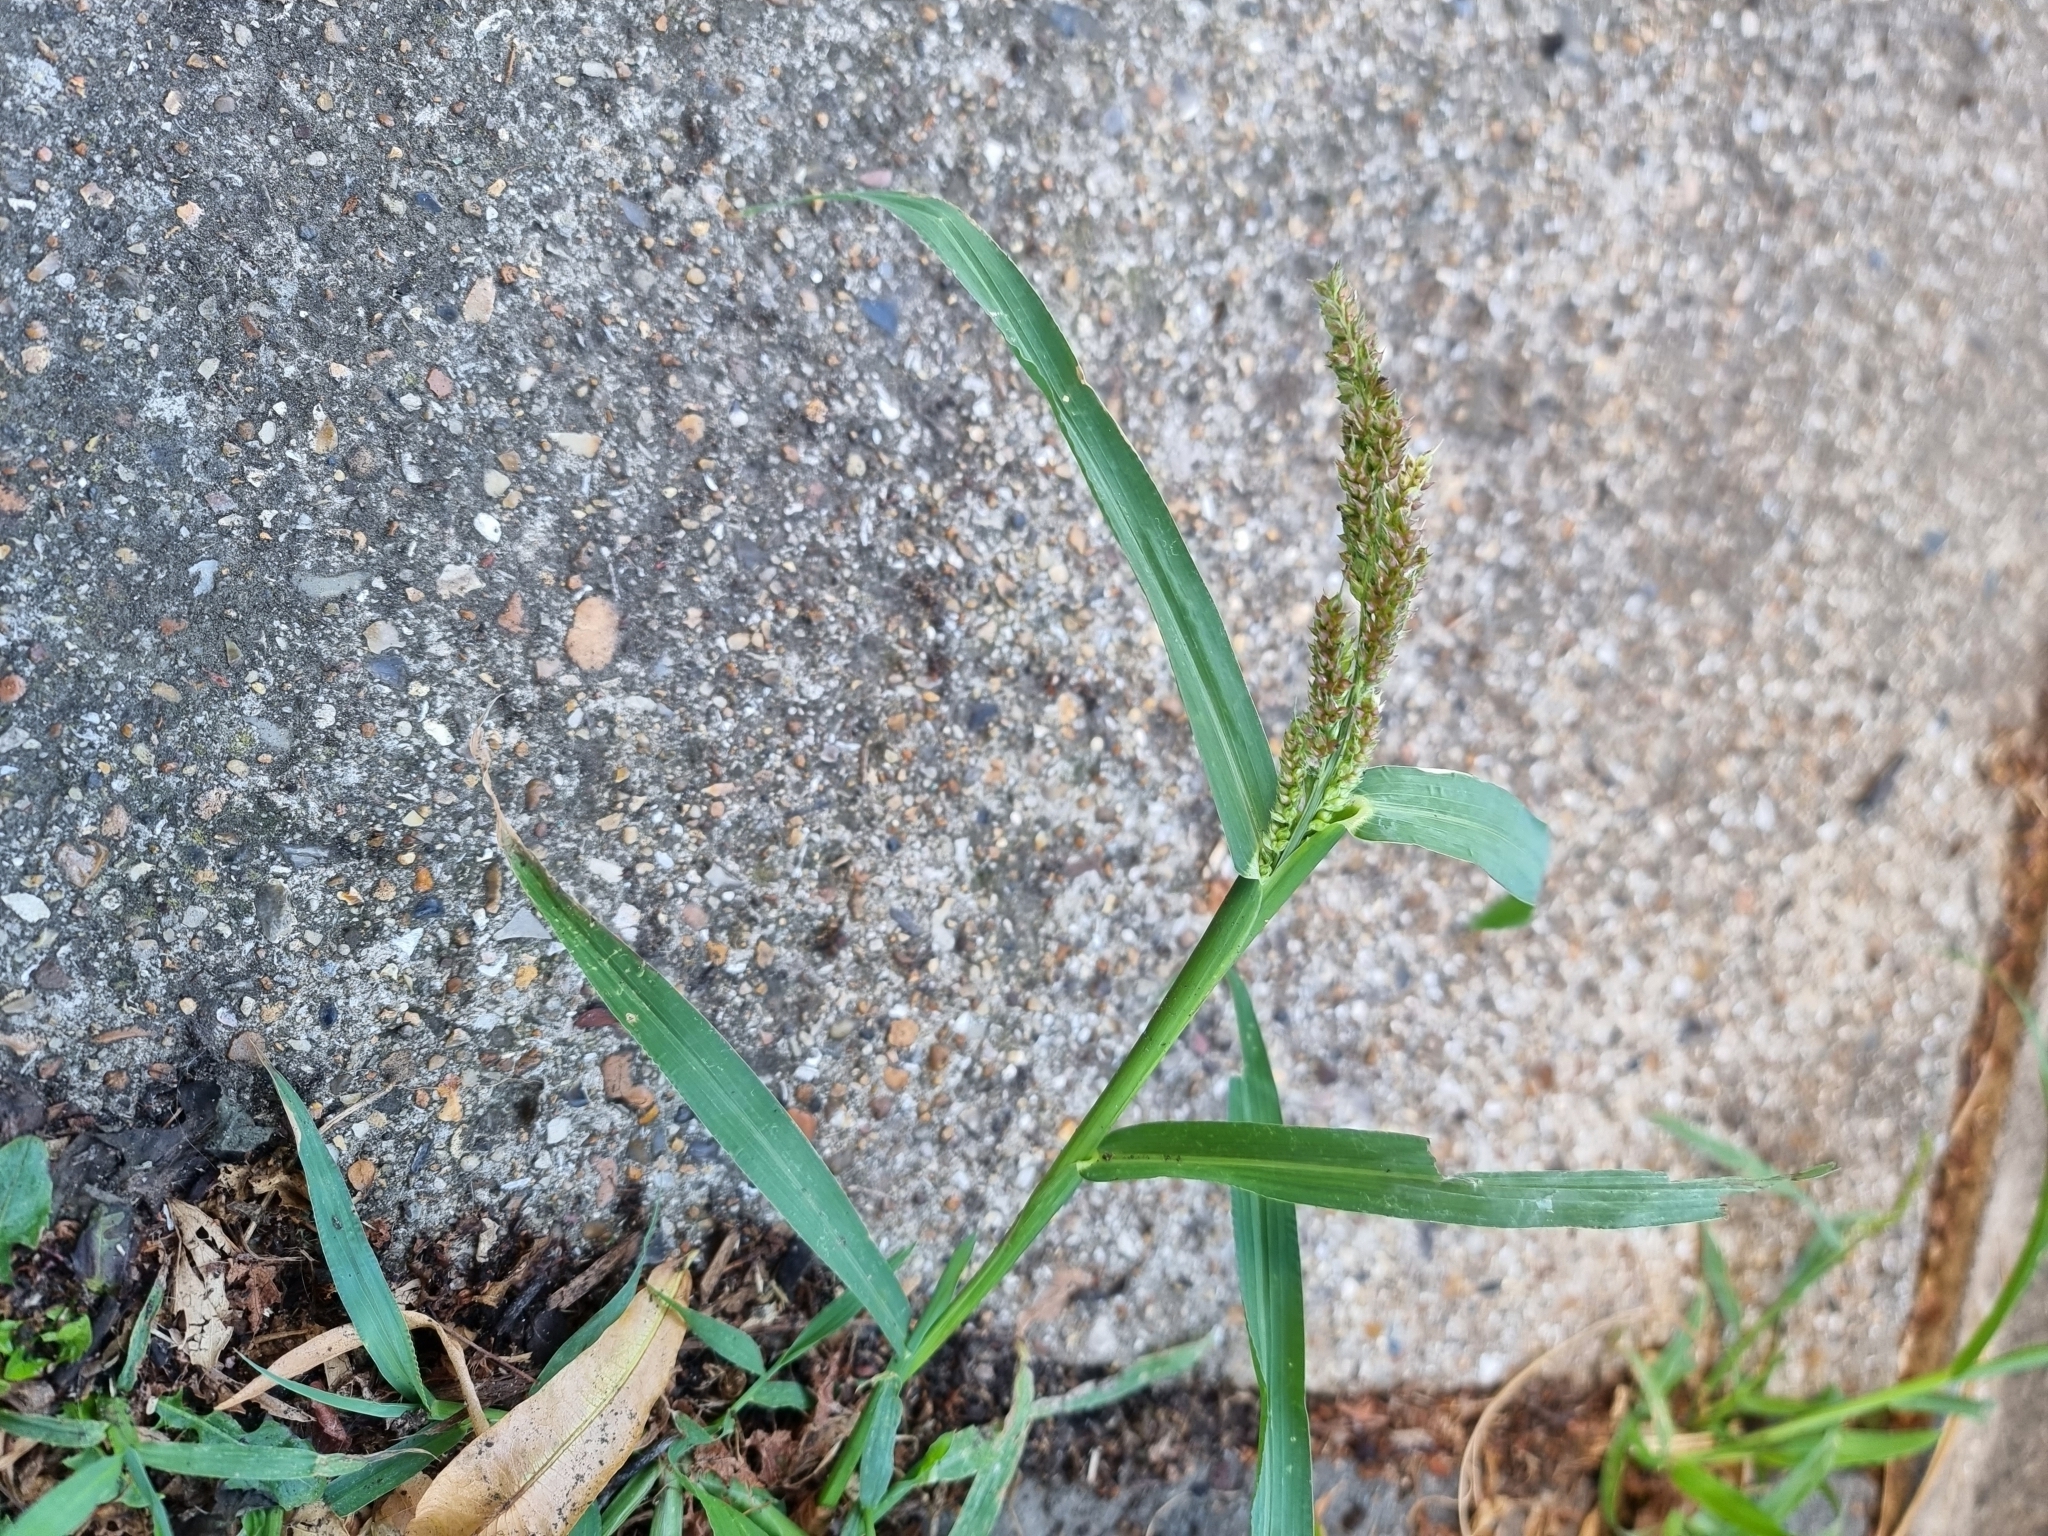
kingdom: Plantae
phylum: Tracheophyta
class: Liliopsida
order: Poales
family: Poaceae
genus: Echinochloa
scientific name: Echinochloa crus-galli
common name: Cockspur
